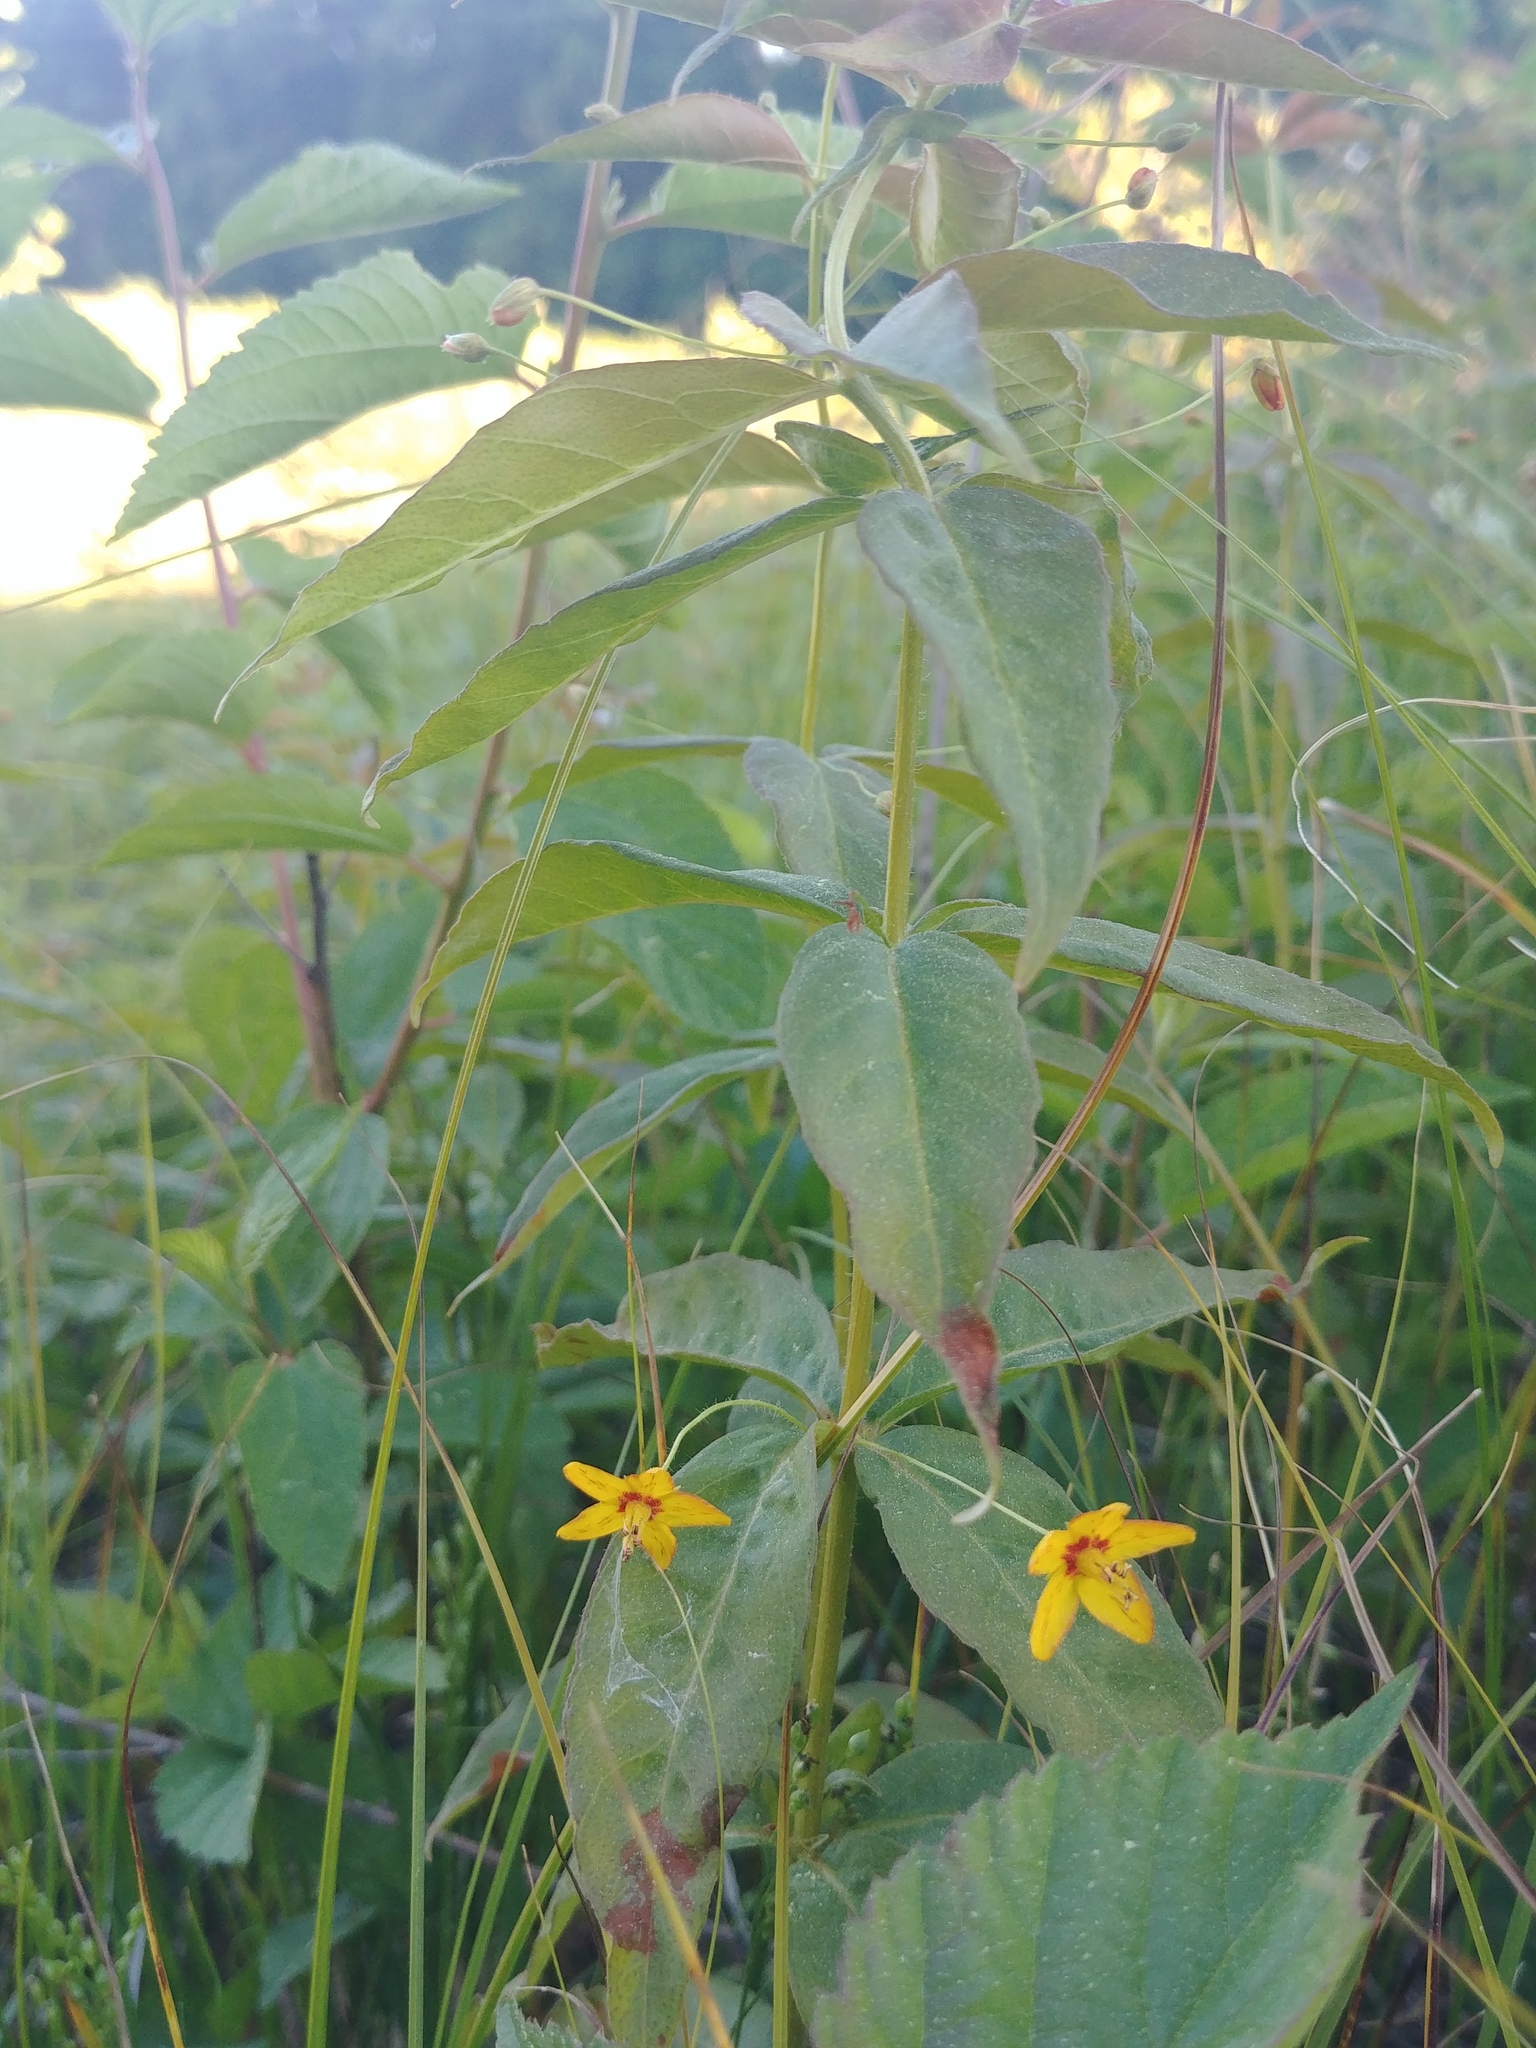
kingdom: Plantae
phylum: Tracheophyta
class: Magnoliopsida
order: Ericales
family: Primulaceae
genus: Lysimachia
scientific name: Lysimachia quadrifolia
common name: Whorled loosestrife
